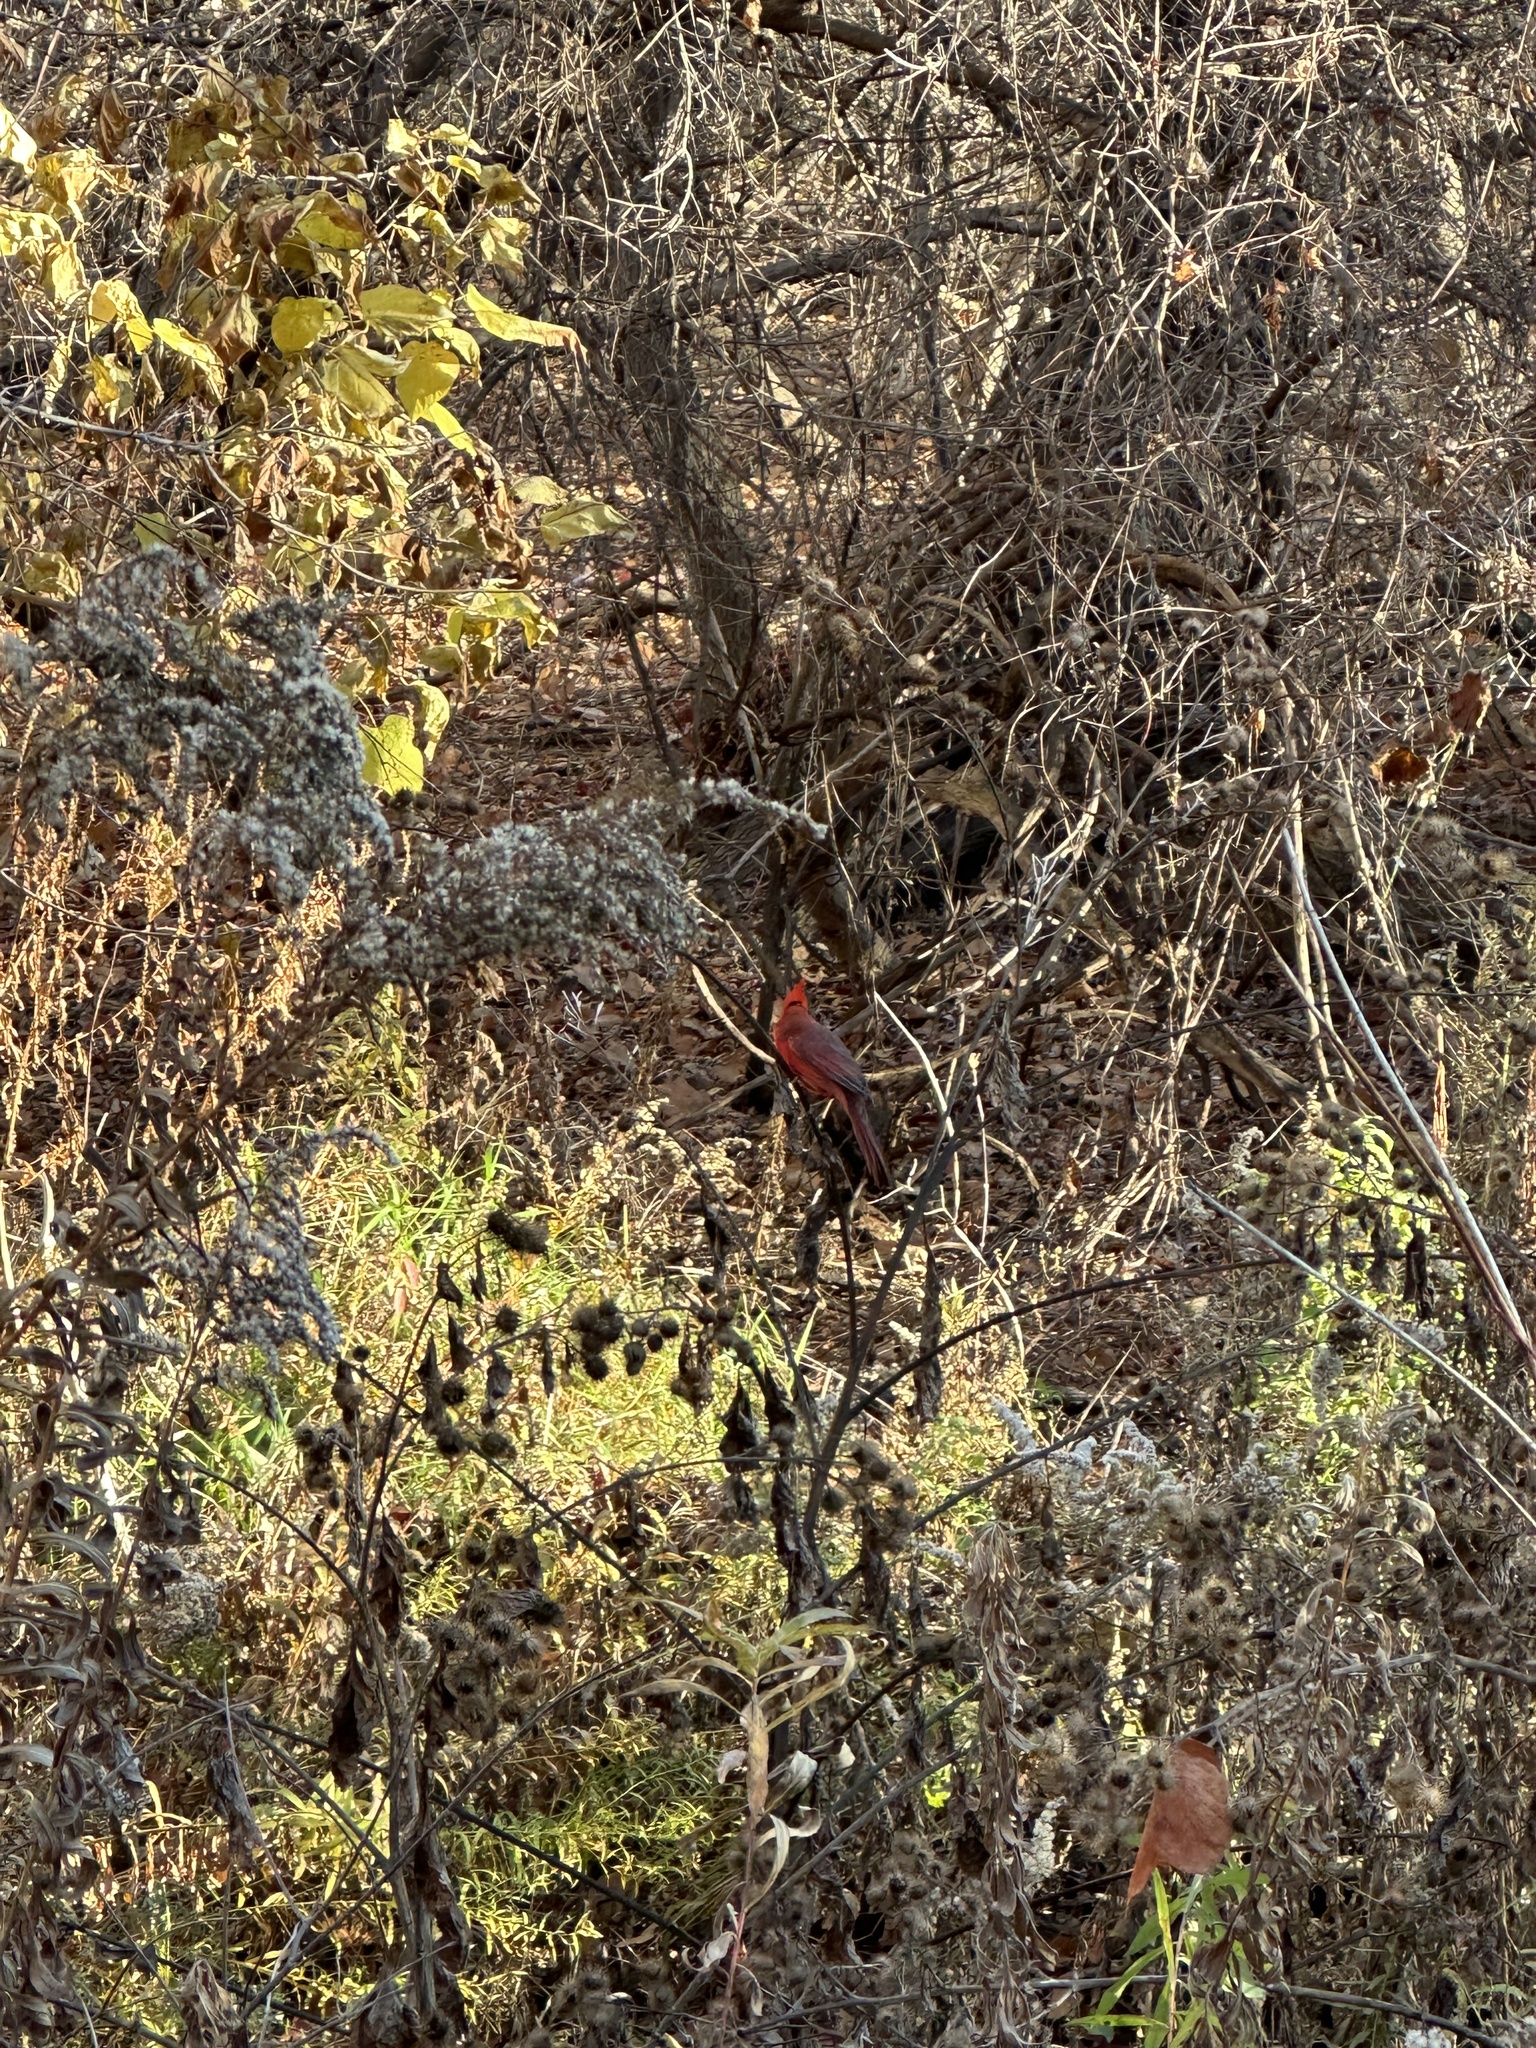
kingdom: Animalia
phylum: Chordata
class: Aves
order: Passeriformes
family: Cardinalidae
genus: Cardinalis
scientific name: Cardinalis cardinalis
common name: Northern cardinal
